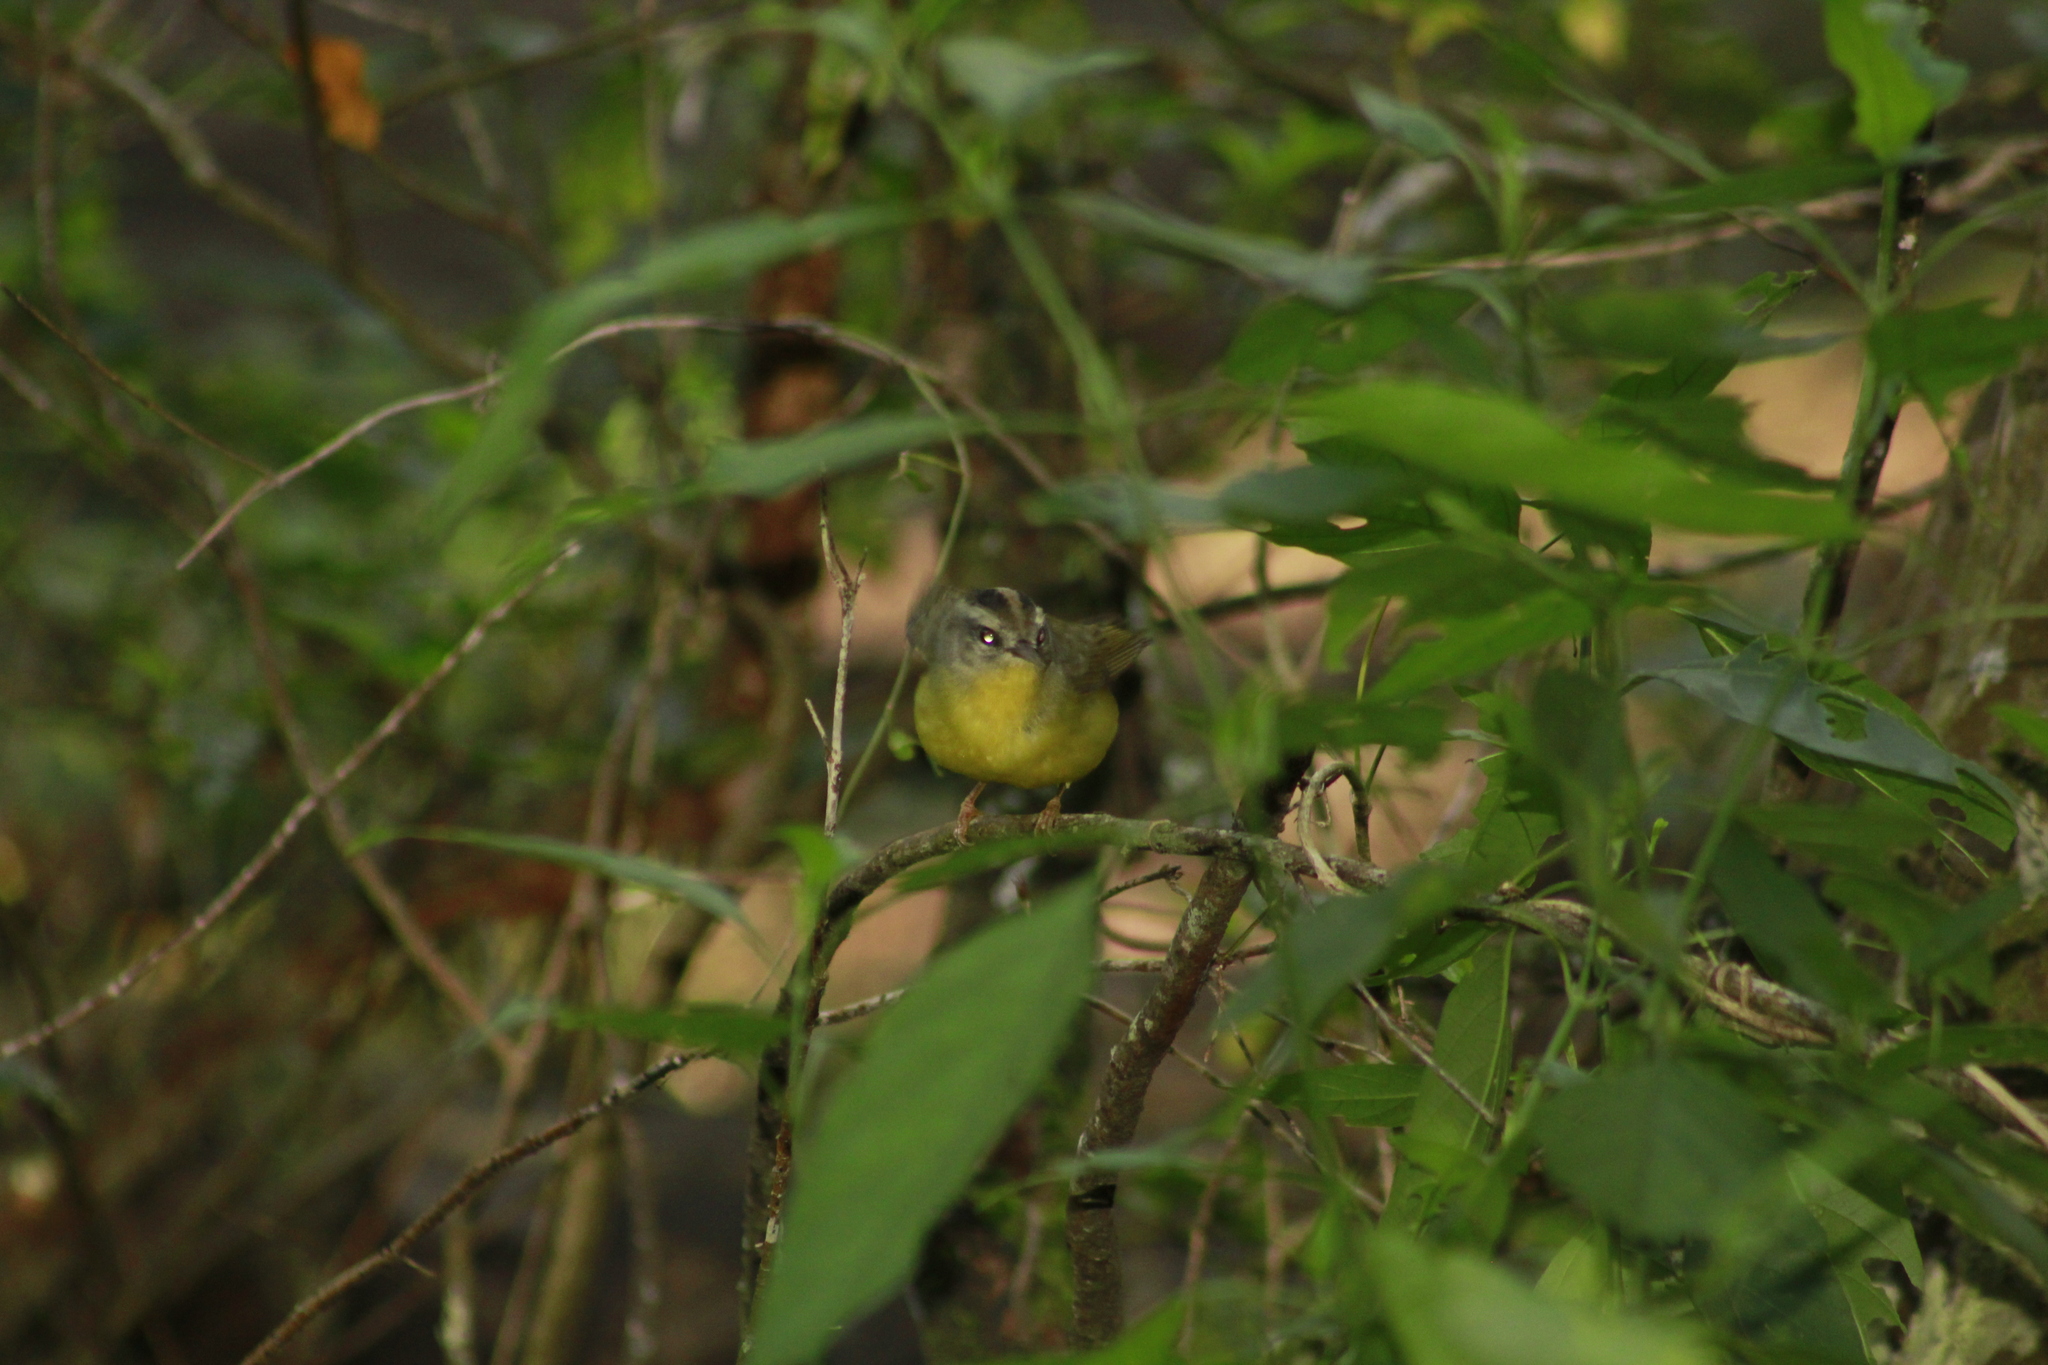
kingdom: Animalia
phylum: Chordata
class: Aves
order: Passeriformes
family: Parulidae
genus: Basileuterus
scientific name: Basileuterus culicivorus
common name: Golden-crowned warbler
